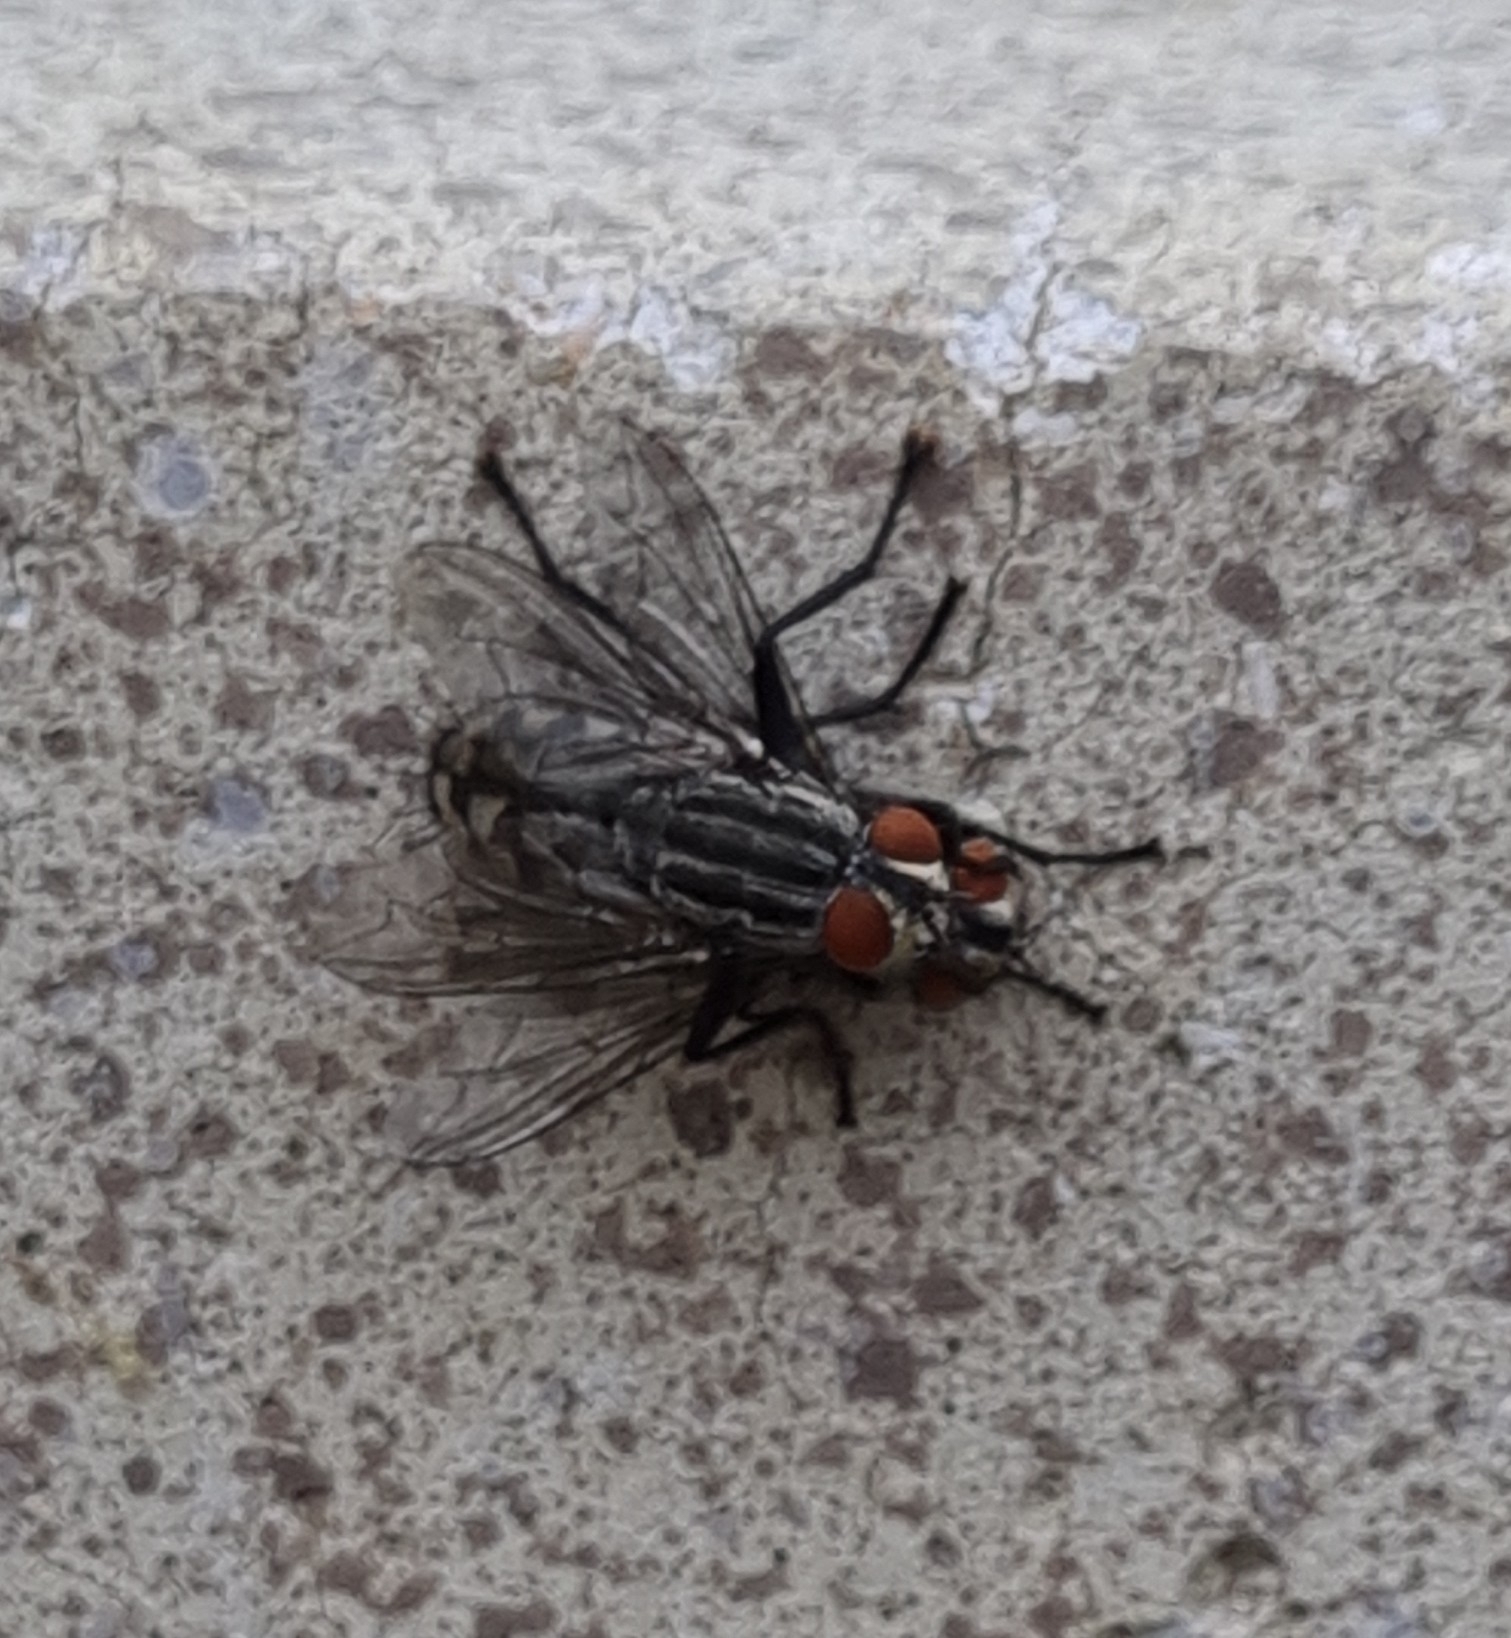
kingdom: Animalia
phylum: Arthropoda
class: Insecta
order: Diptera
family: Sarcophagidae
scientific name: Sarcophagidae
